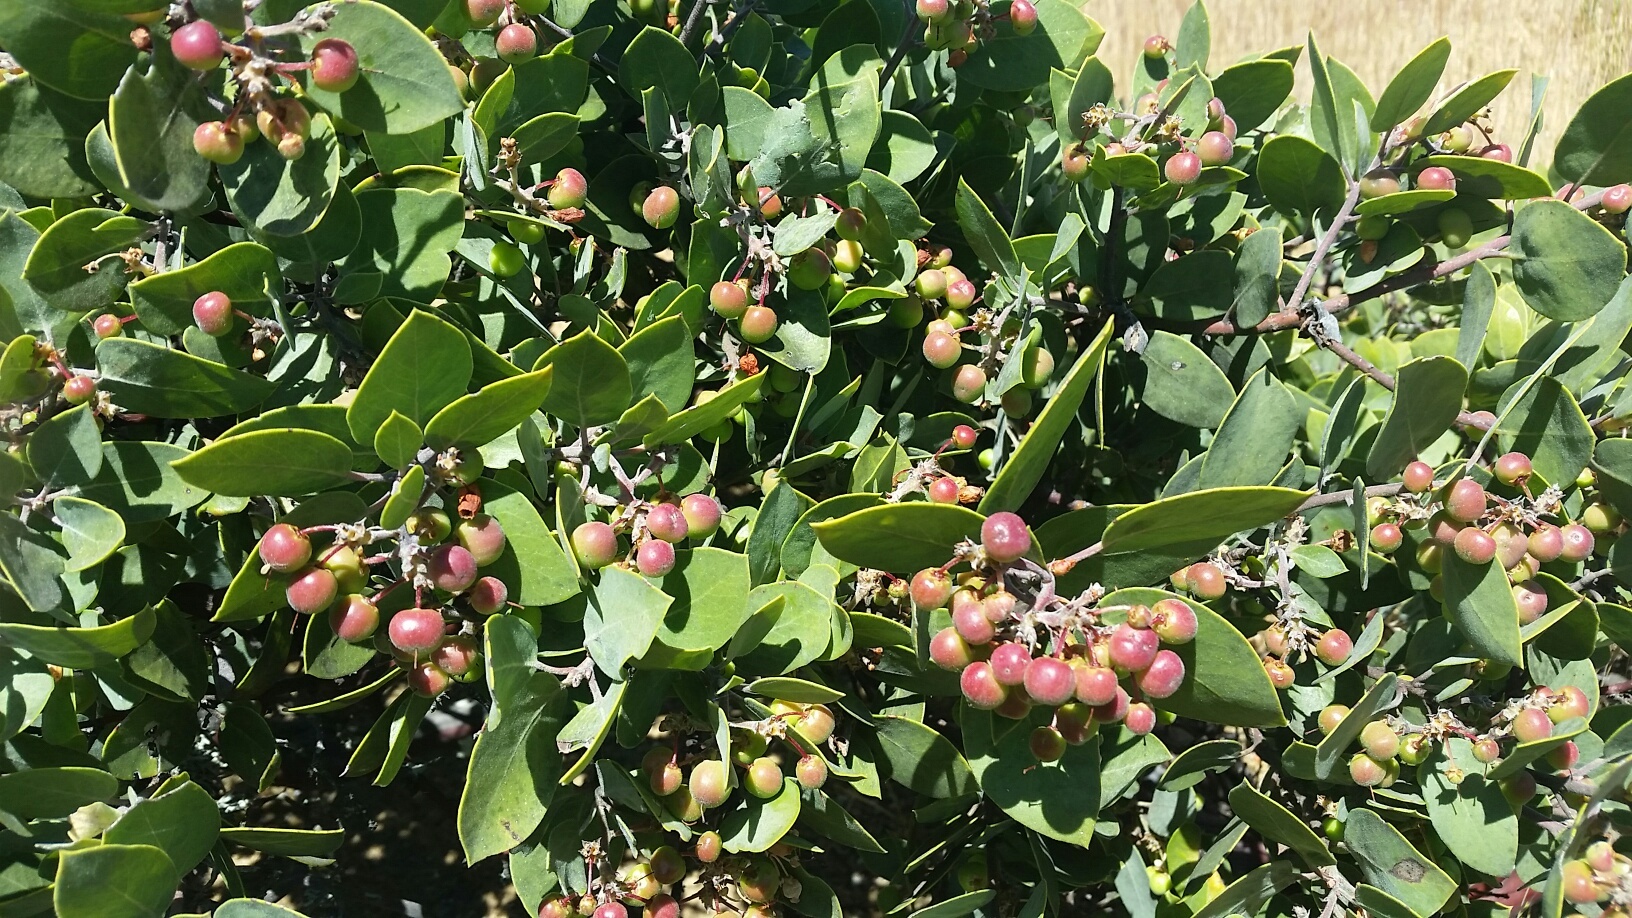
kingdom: Plantae
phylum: Tracheophyta
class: Magnoliopsida
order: Ericales
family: Ericaceae
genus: Arctostaphylos
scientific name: Arctostaphylos manzanita
